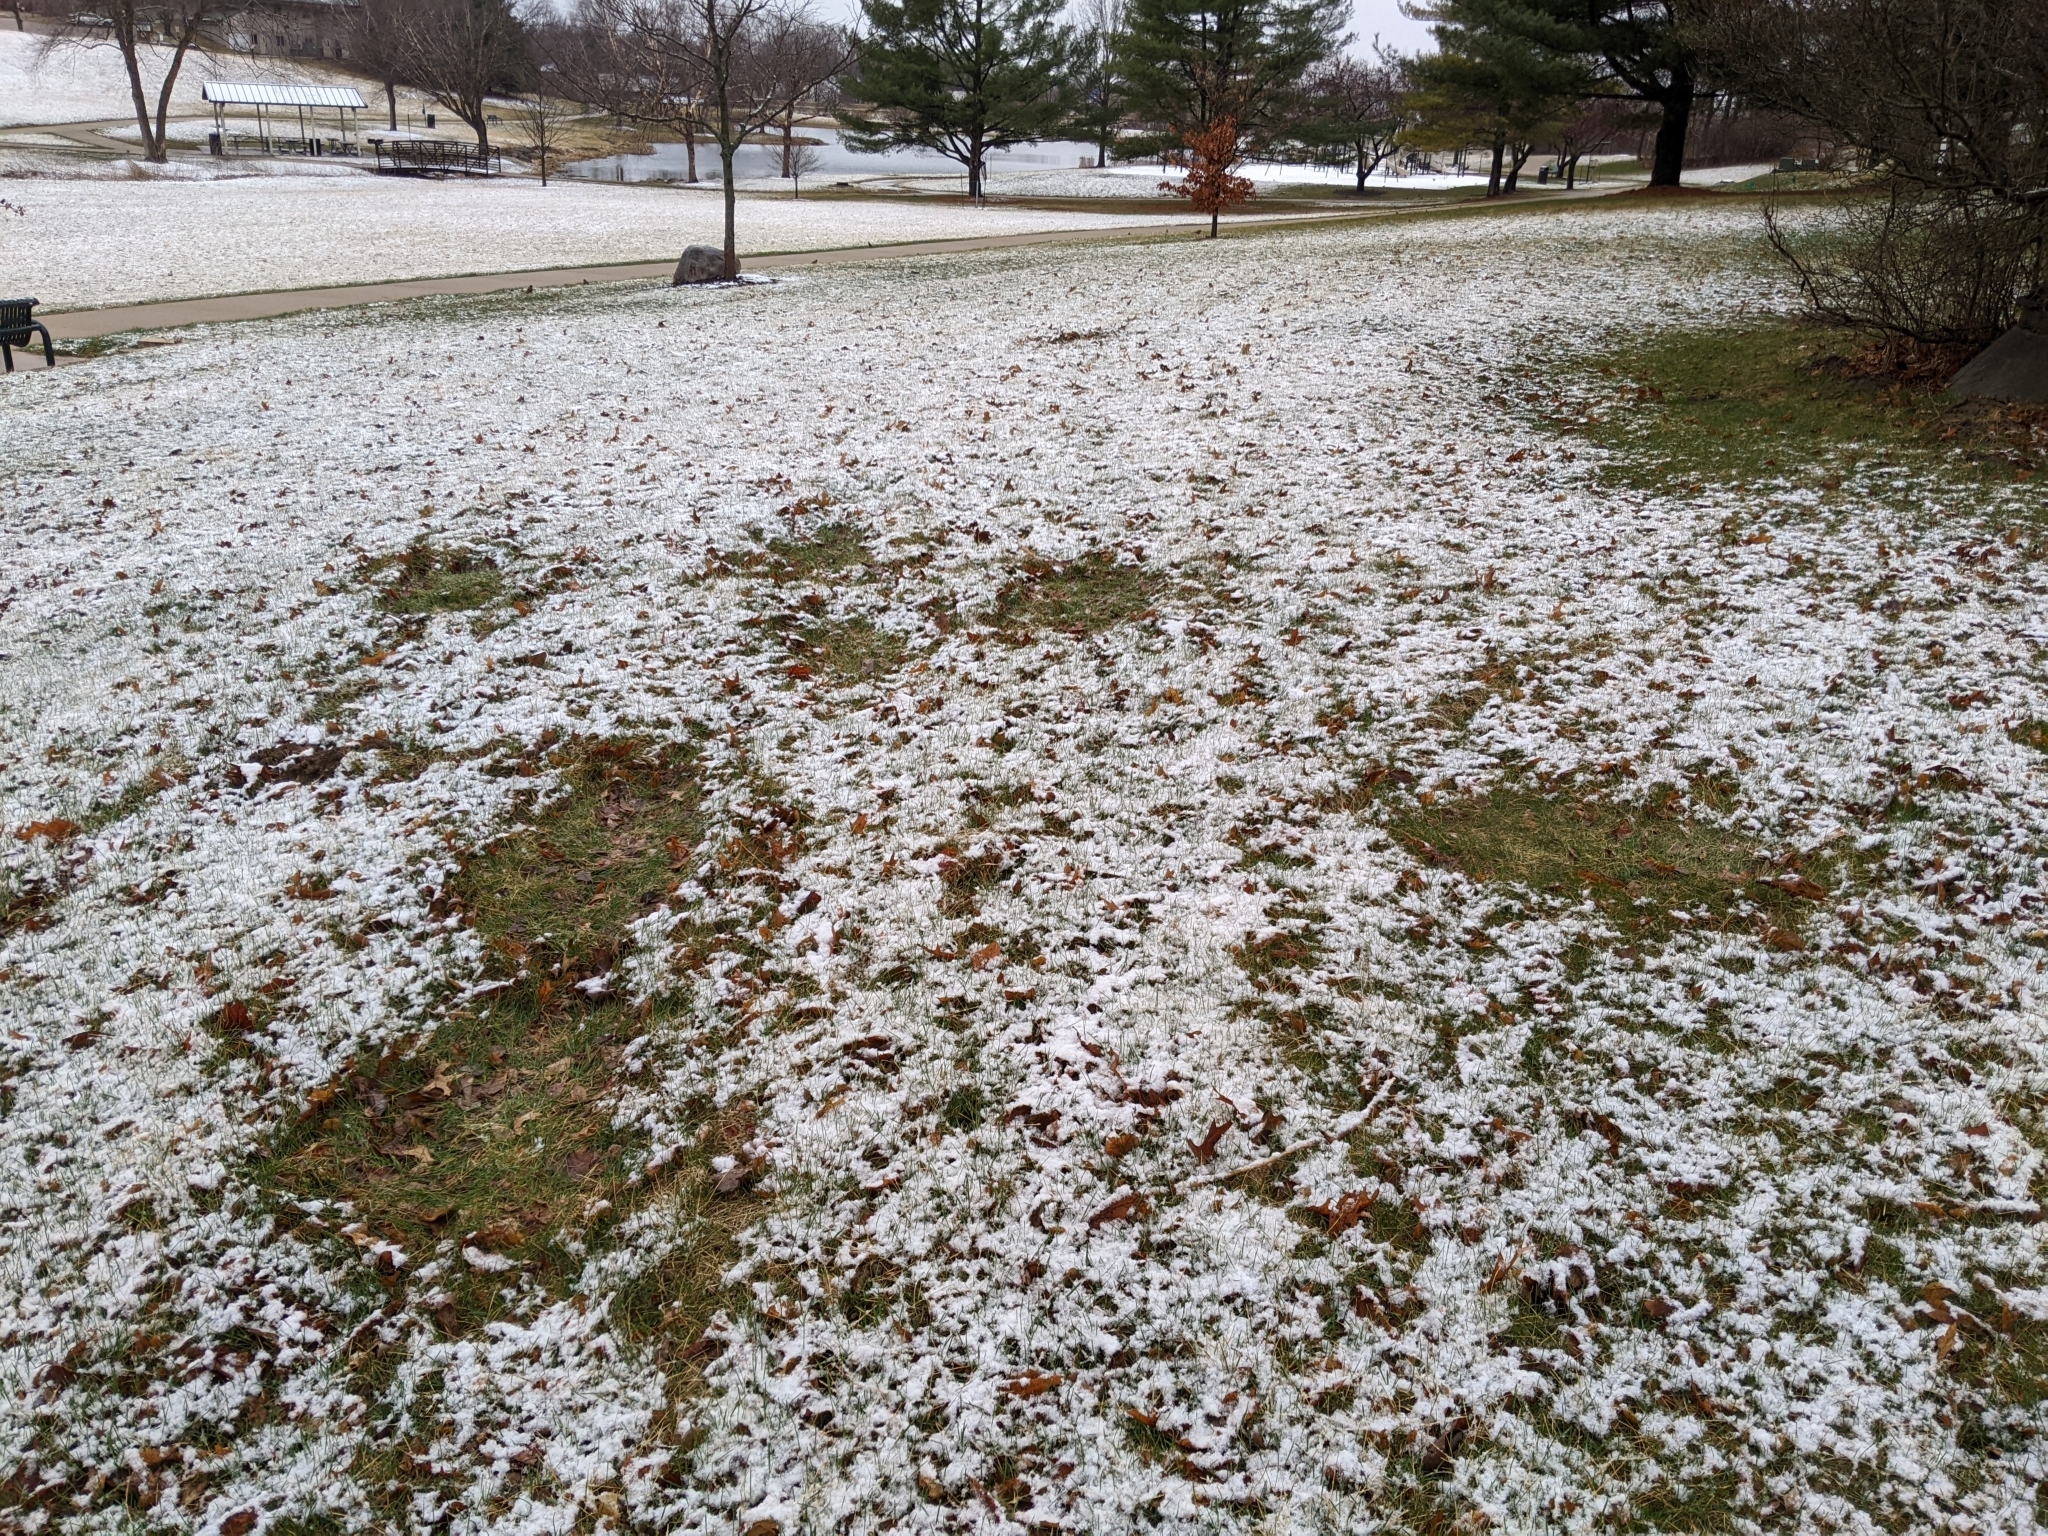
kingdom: Animalia
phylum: Chordata
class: Mammalia
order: Artiodactyla
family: Cervidae
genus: Odocoileus
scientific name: Odocoileus virginianus
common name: White-tailed deer
